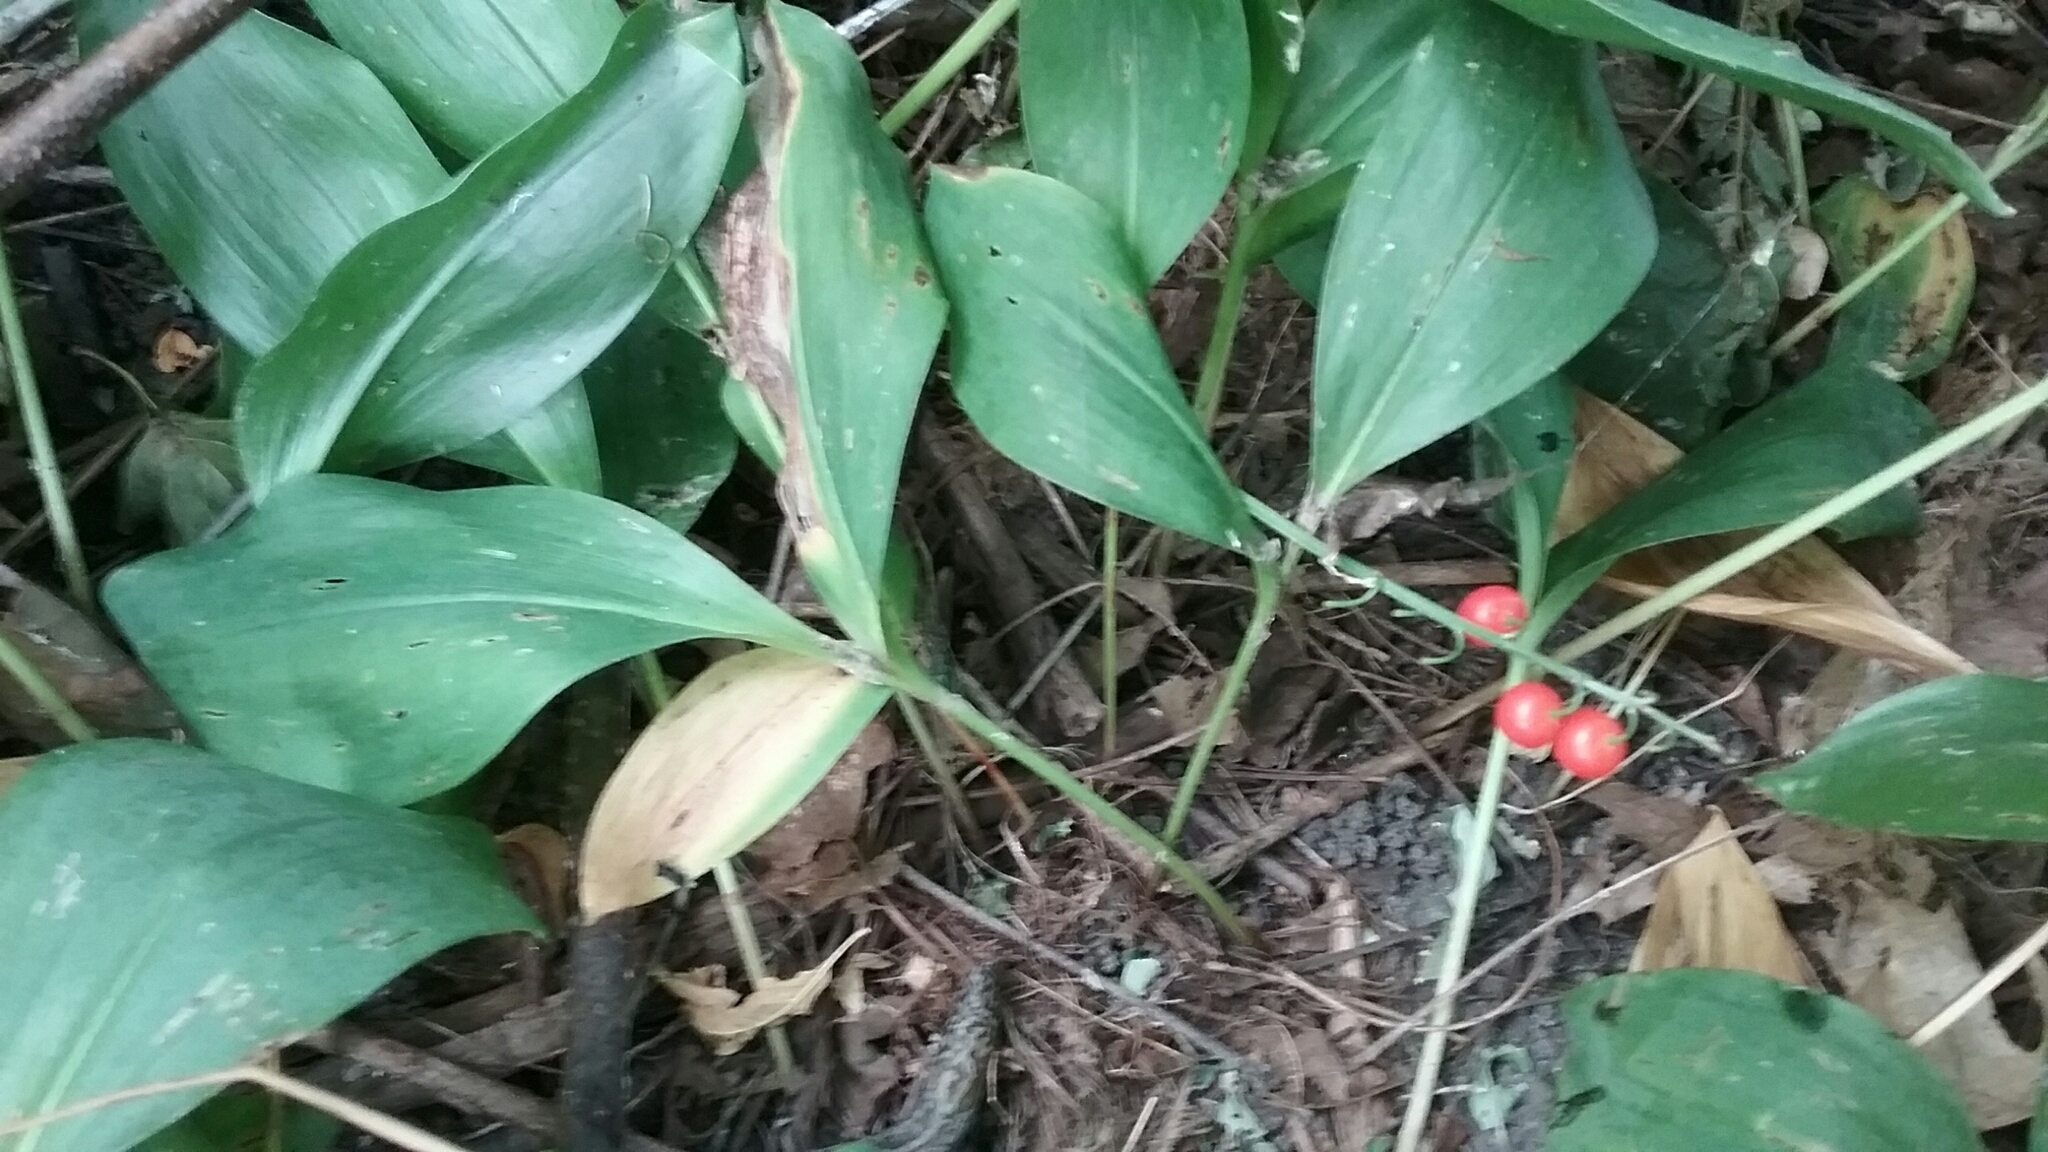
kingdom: Plantae
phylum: Tracheophyta
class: Liliopsida
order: Asparagales
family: Asparagaceae
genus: Convallaria
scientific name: Convallaria majalis
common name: Lily-of-the-valley
